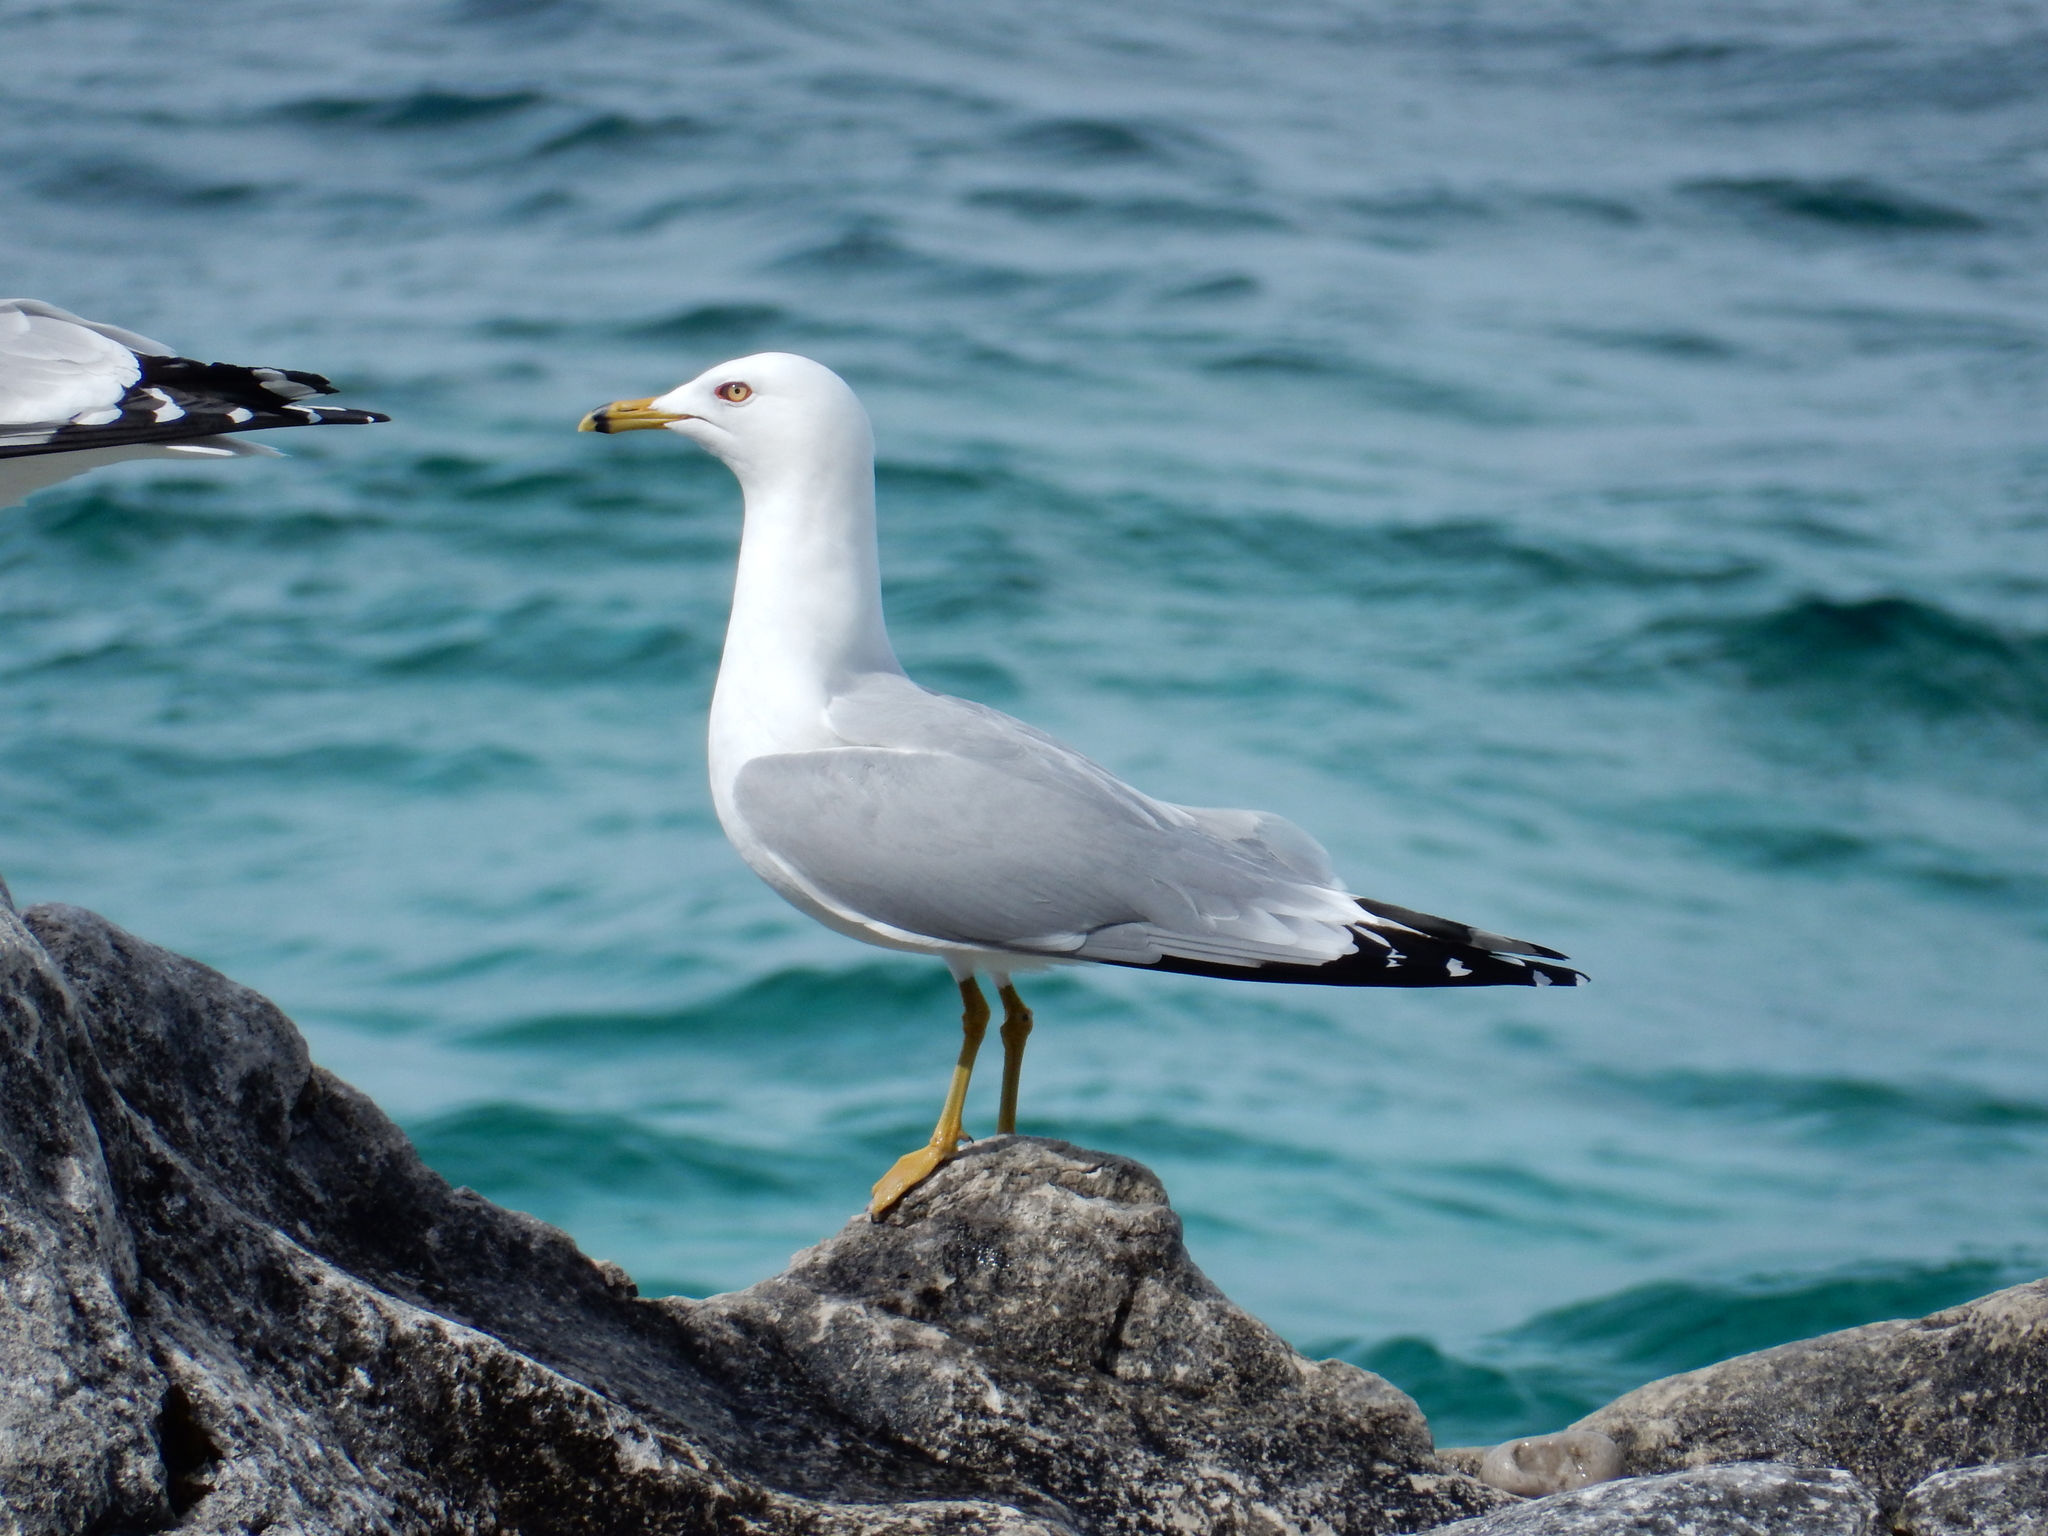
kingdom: Animalia
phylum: Chordata
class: Aves
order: Charadriiformes
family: Laridae
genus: Larus
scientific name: Larus delawarensis
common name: Ring-billed gull
